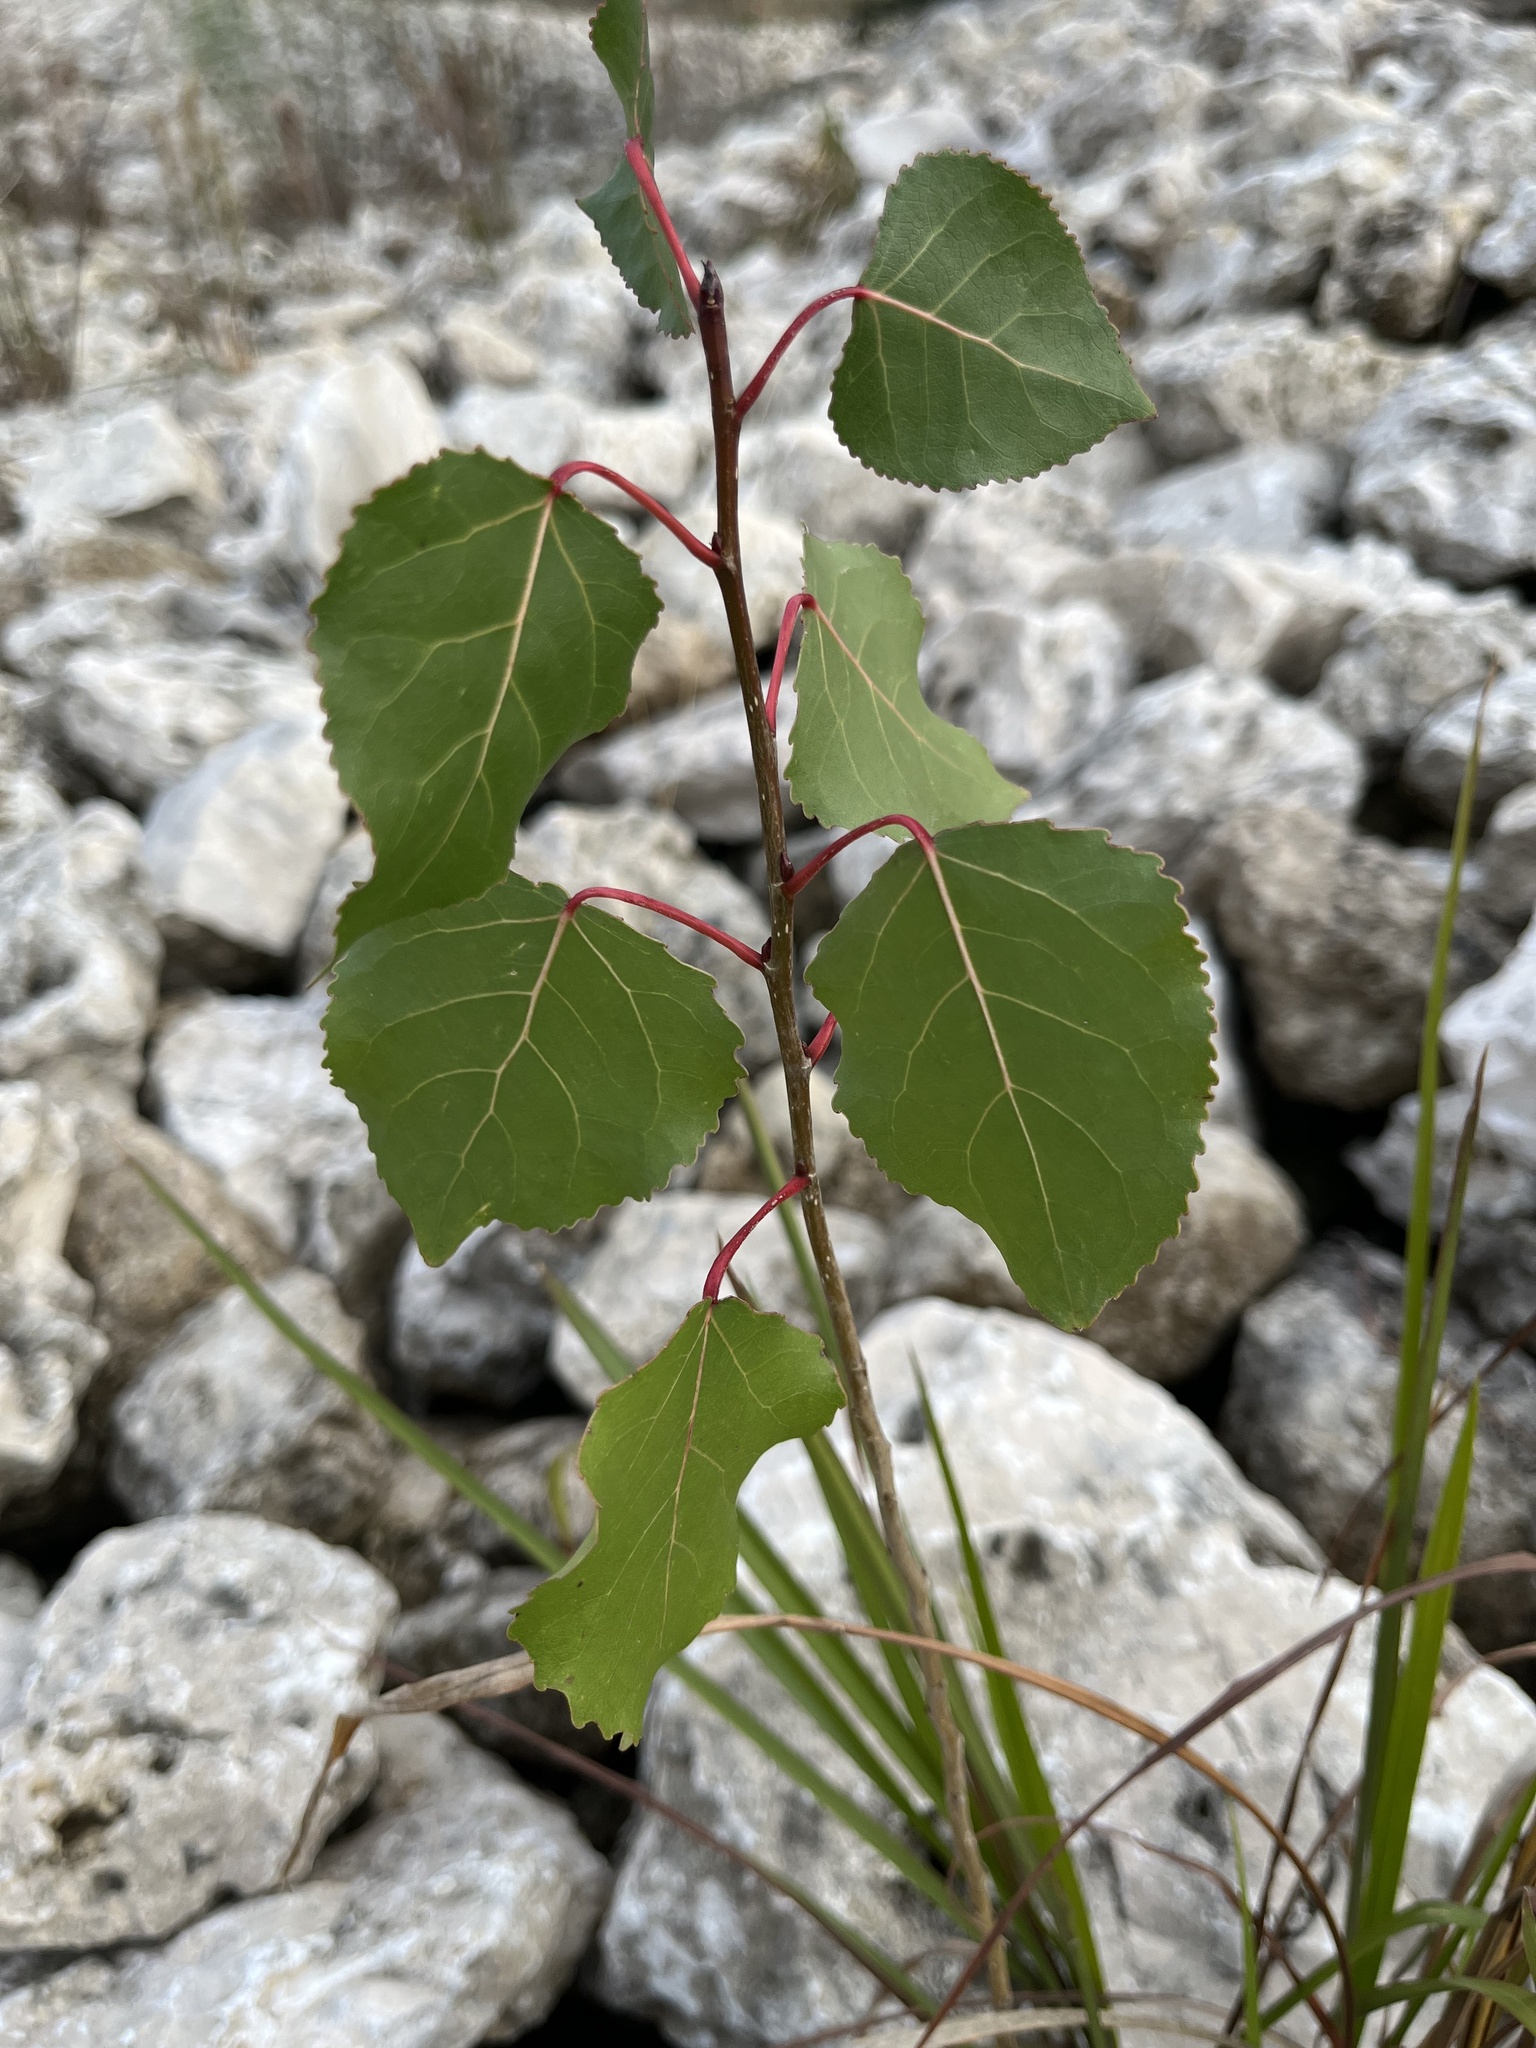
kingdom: Plantae
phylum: Tracheophyta
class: Magnoliopsida
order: Malpighiales
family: Salicaceae
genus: Populus
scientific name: Populus deltoides
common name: Eastern cottonwood
